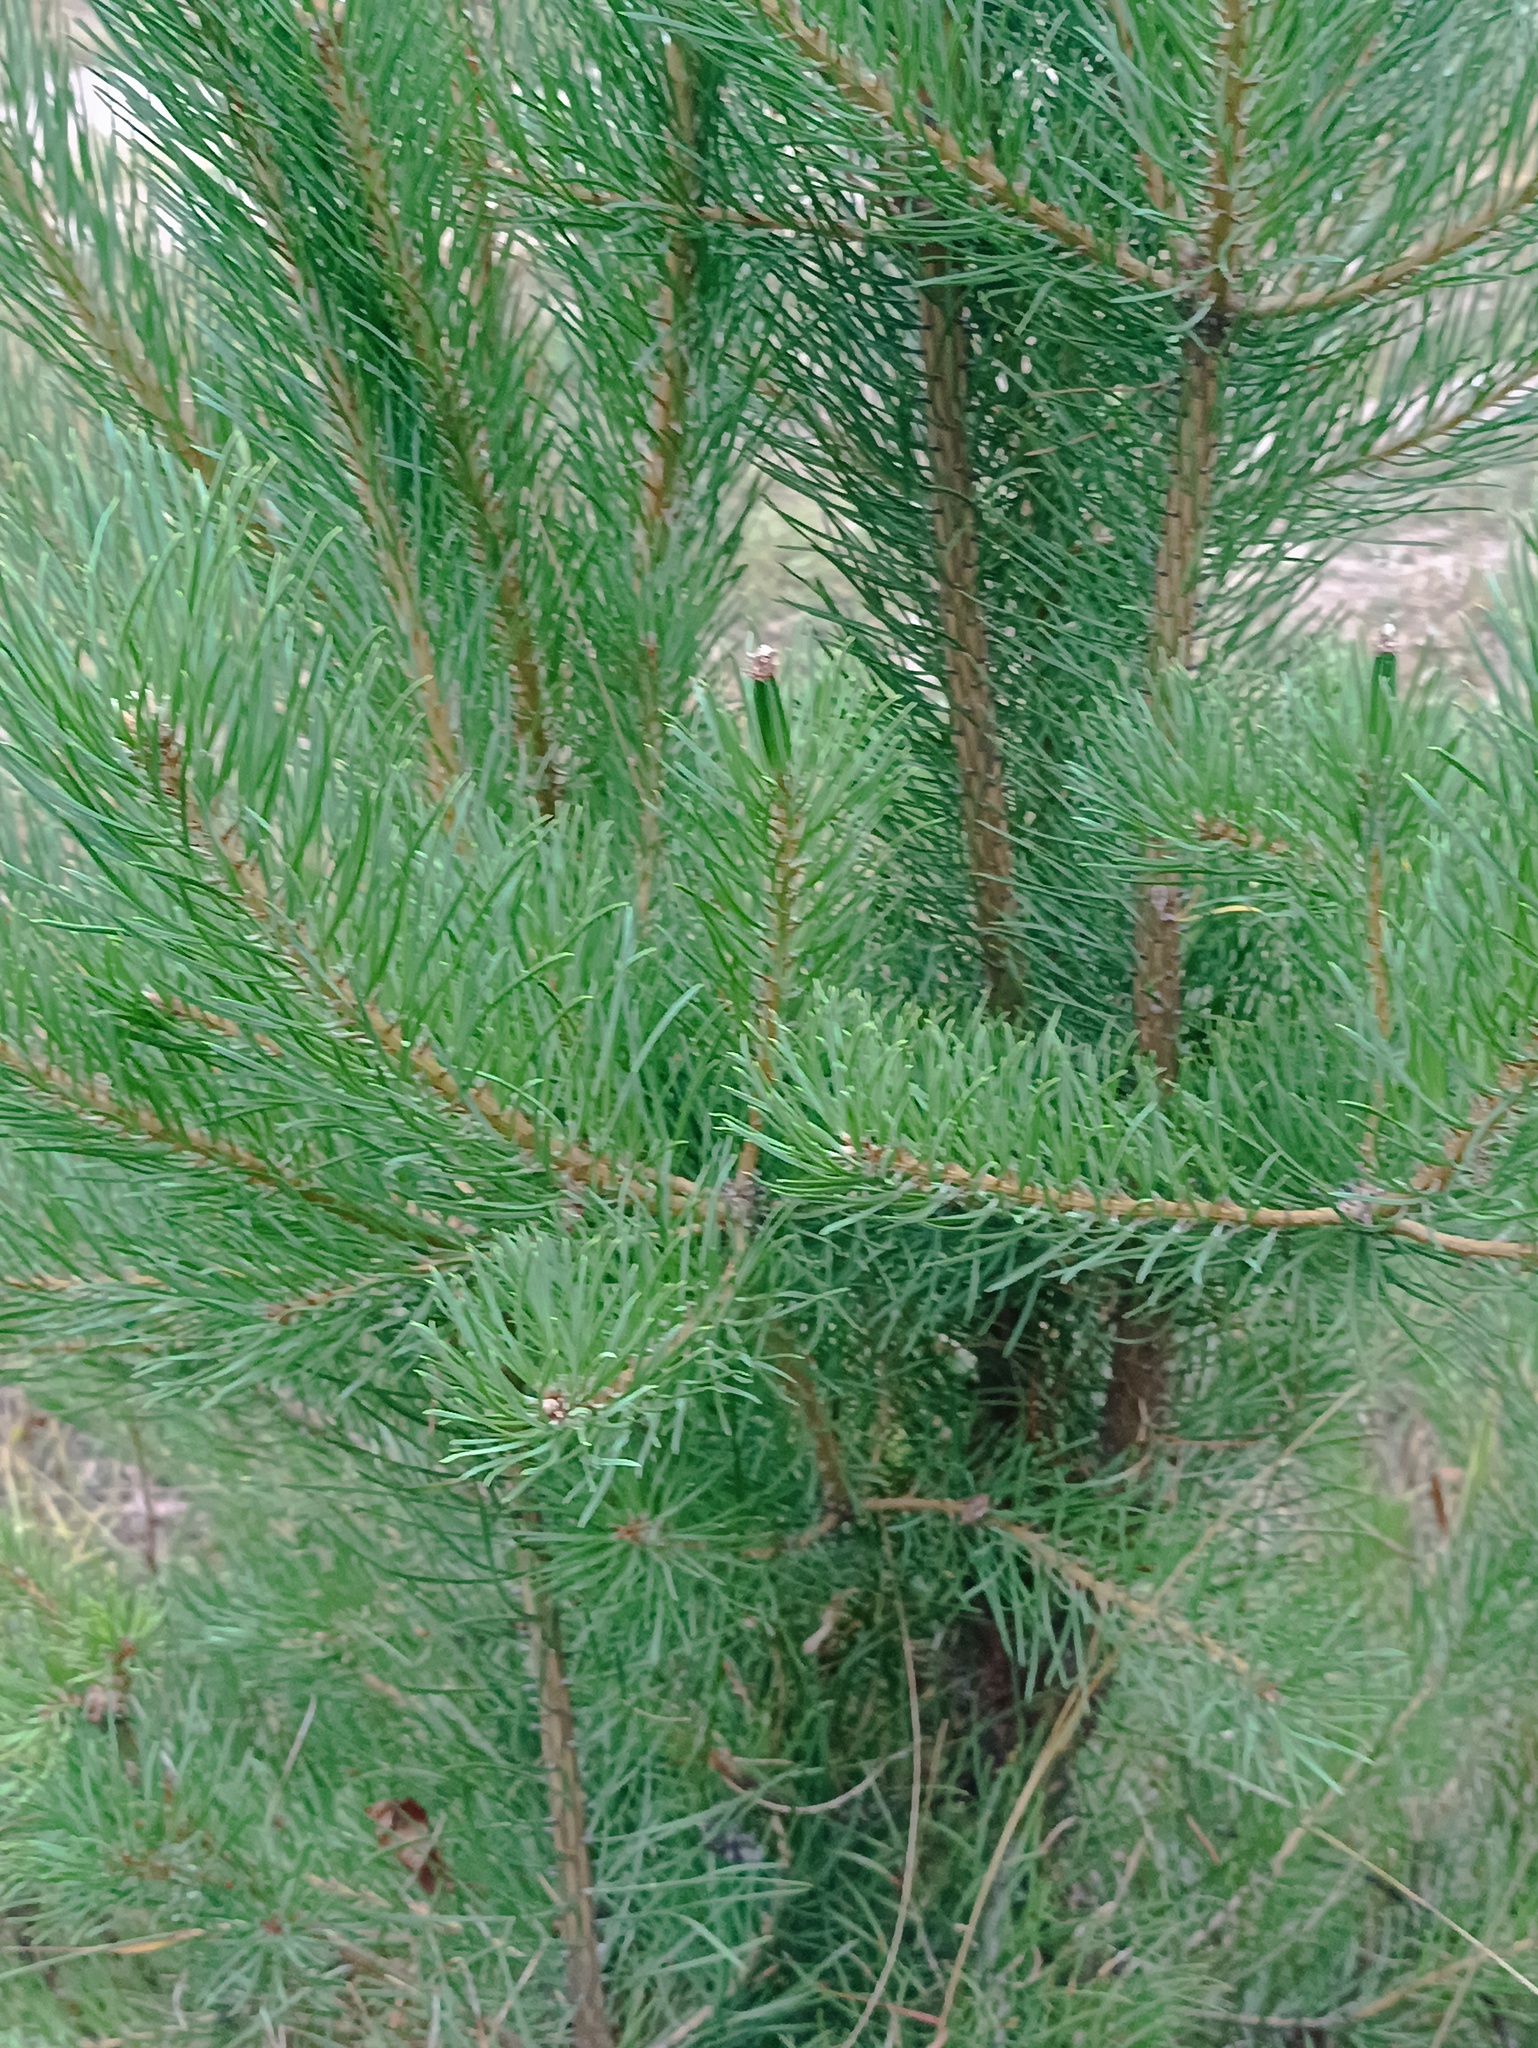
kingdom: Plantae
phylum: Tracheophyta
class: Pinopsida
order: Pinales
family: Pinaceae
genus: Pinus
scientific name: Pinus sylvestris
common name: Scots pine
